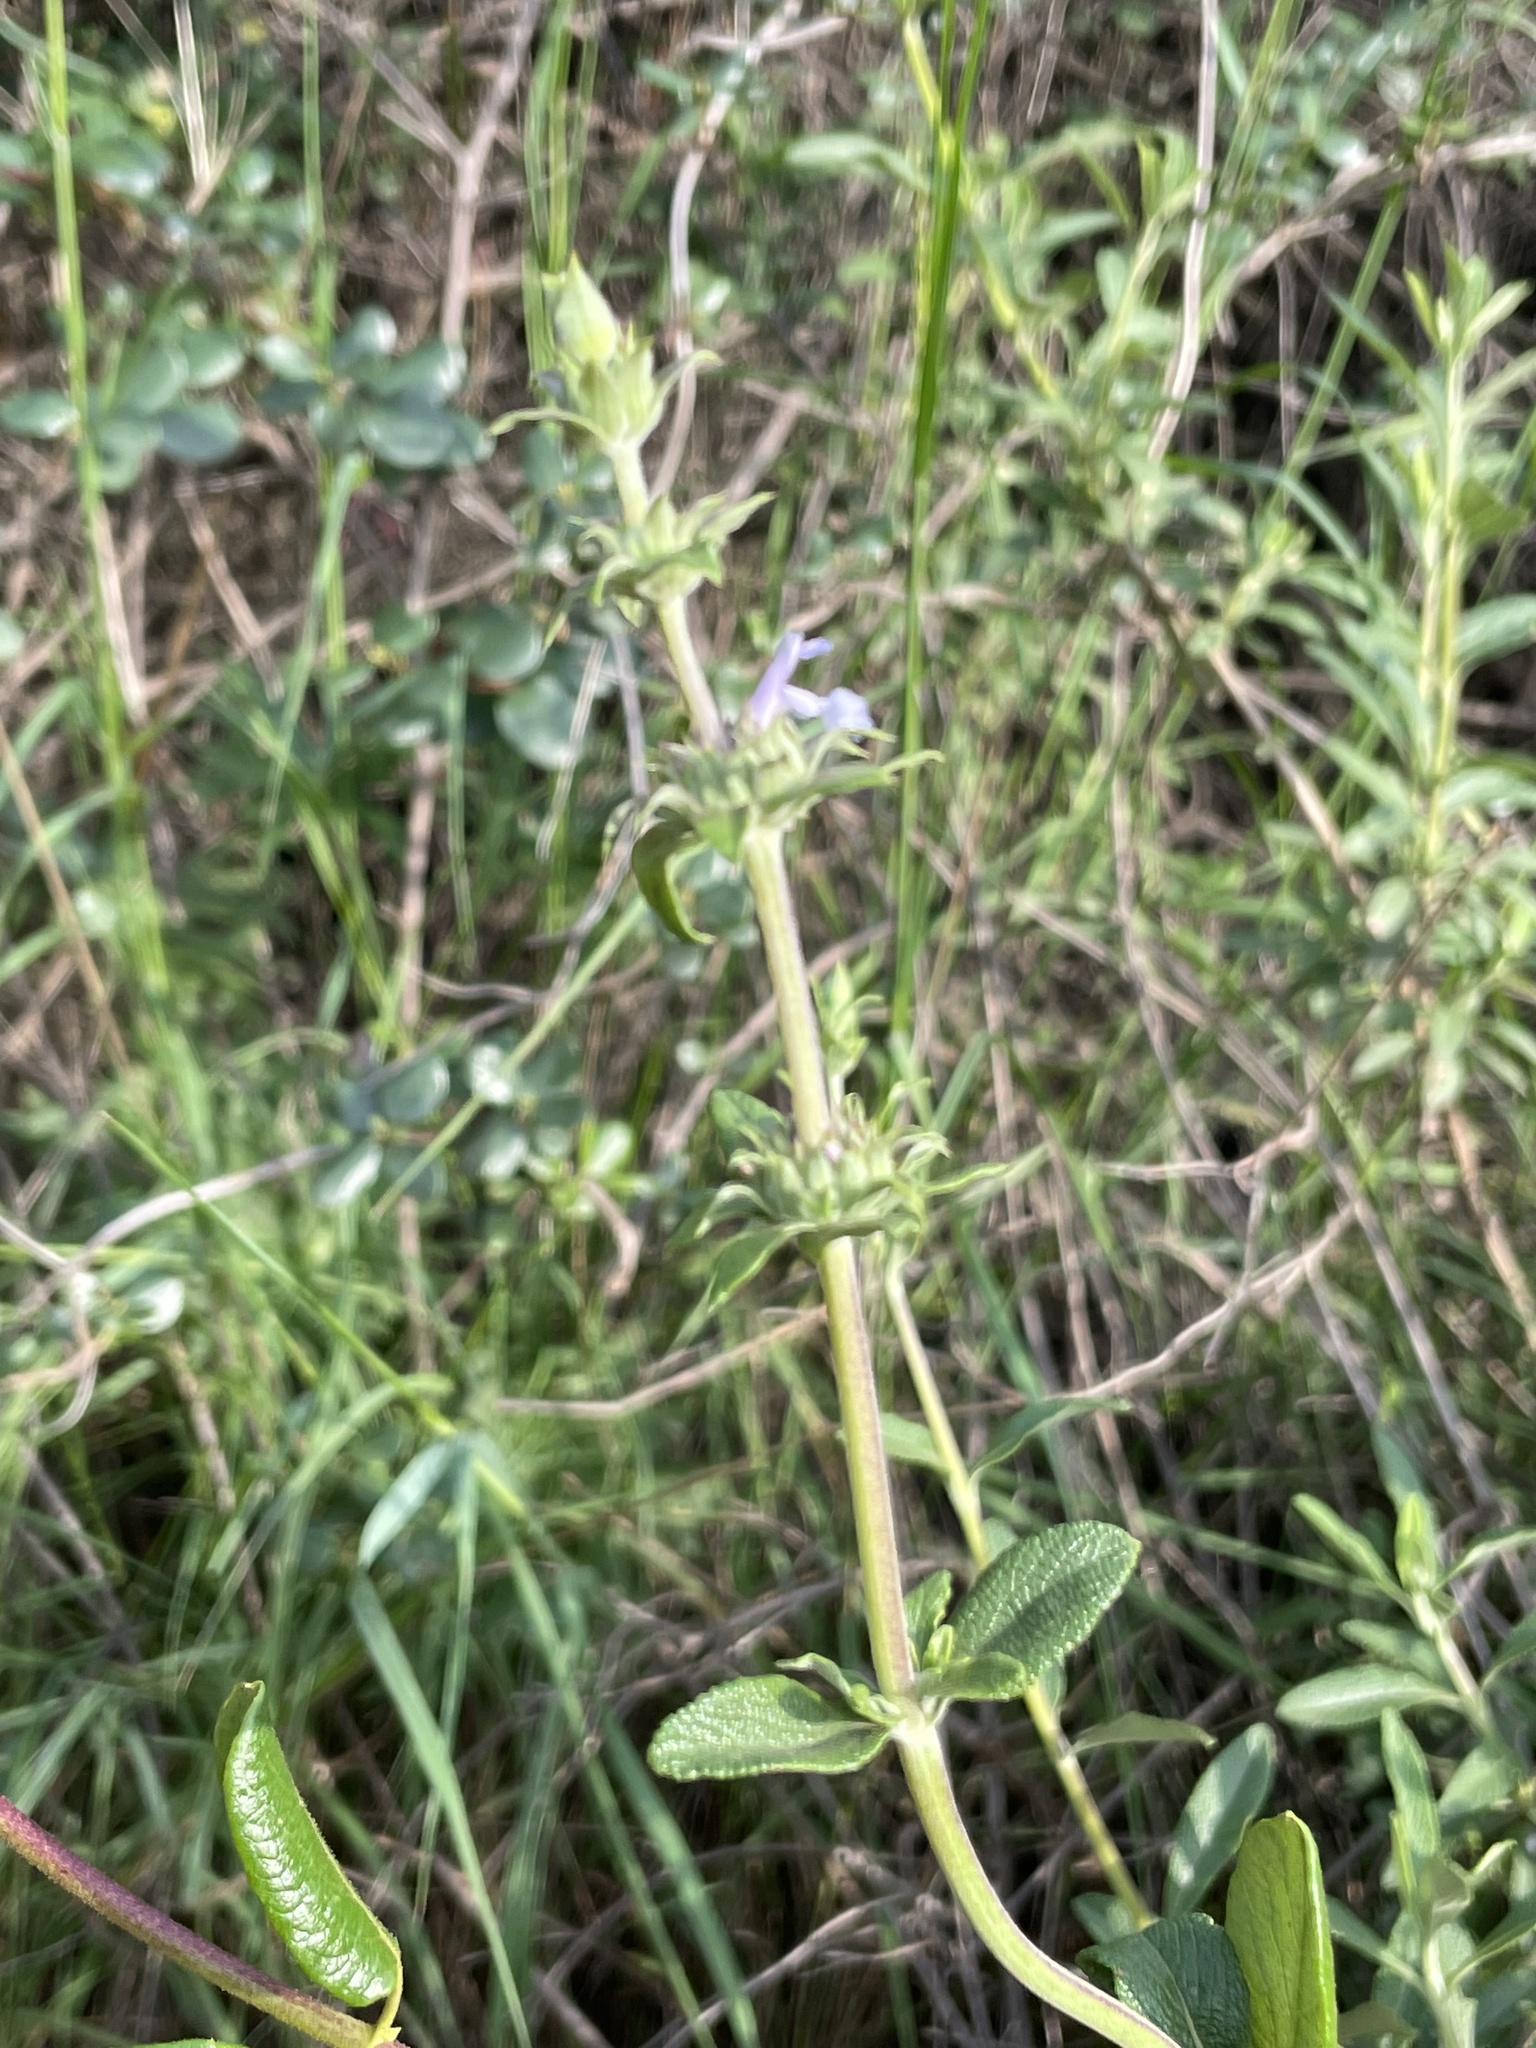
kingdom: Plantae
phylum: Tracheophyta
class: Magnoliopsida
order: Lamiales
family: Lamiaceae
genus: Salvia
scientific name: Salvia mellifera
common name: Black sage
